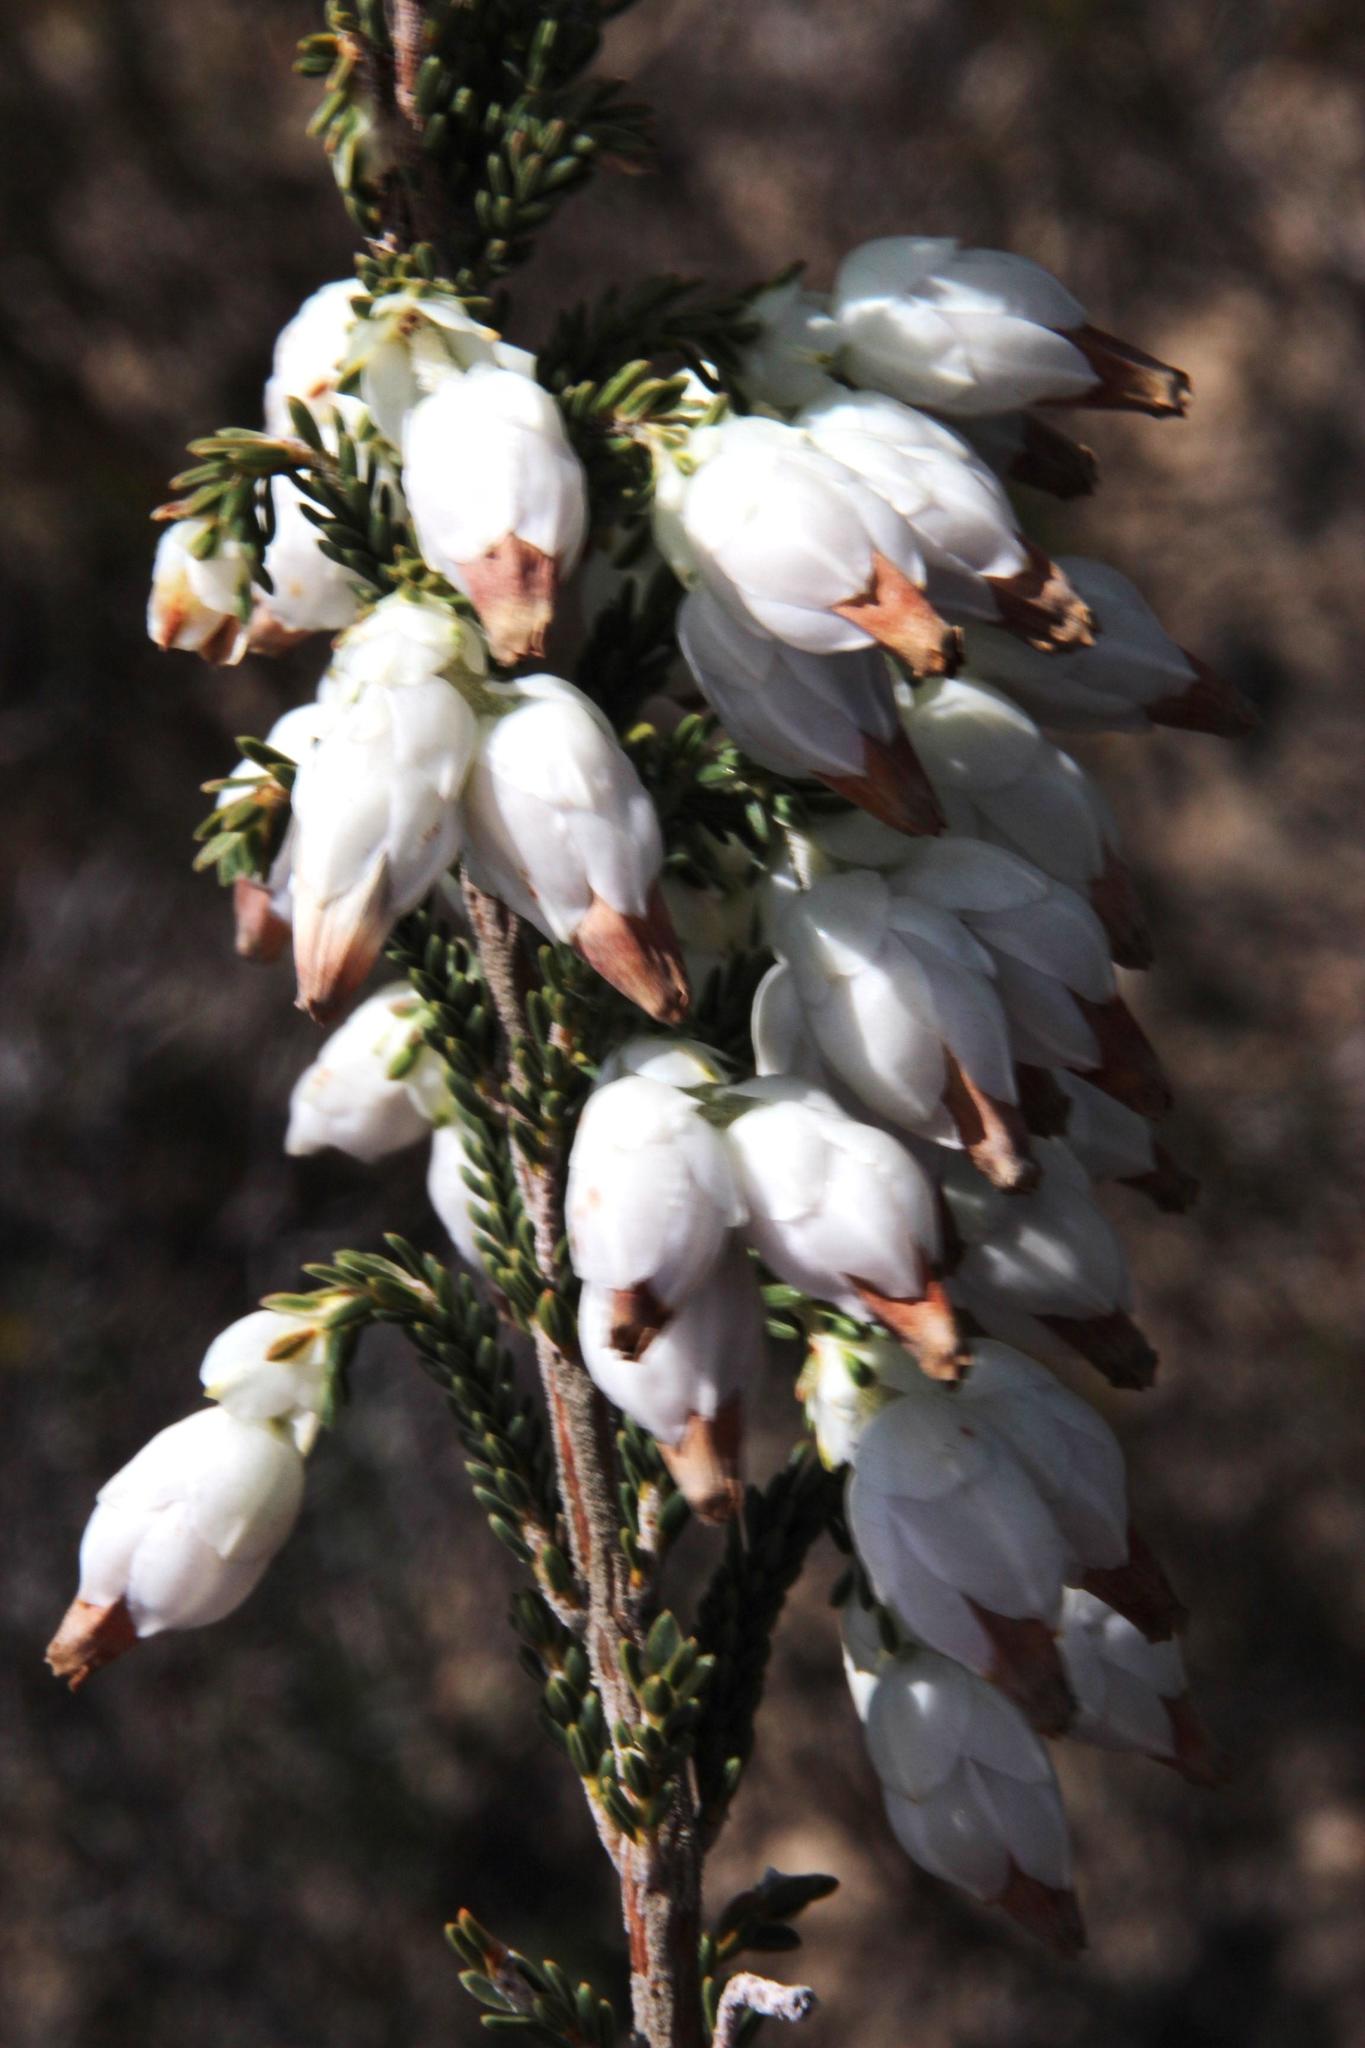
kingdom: Plantae
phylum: Tracheophyta
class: Magnoliopsida
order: Ericales
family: Ericaceae
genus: Erica
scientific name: Erica monsoniana
